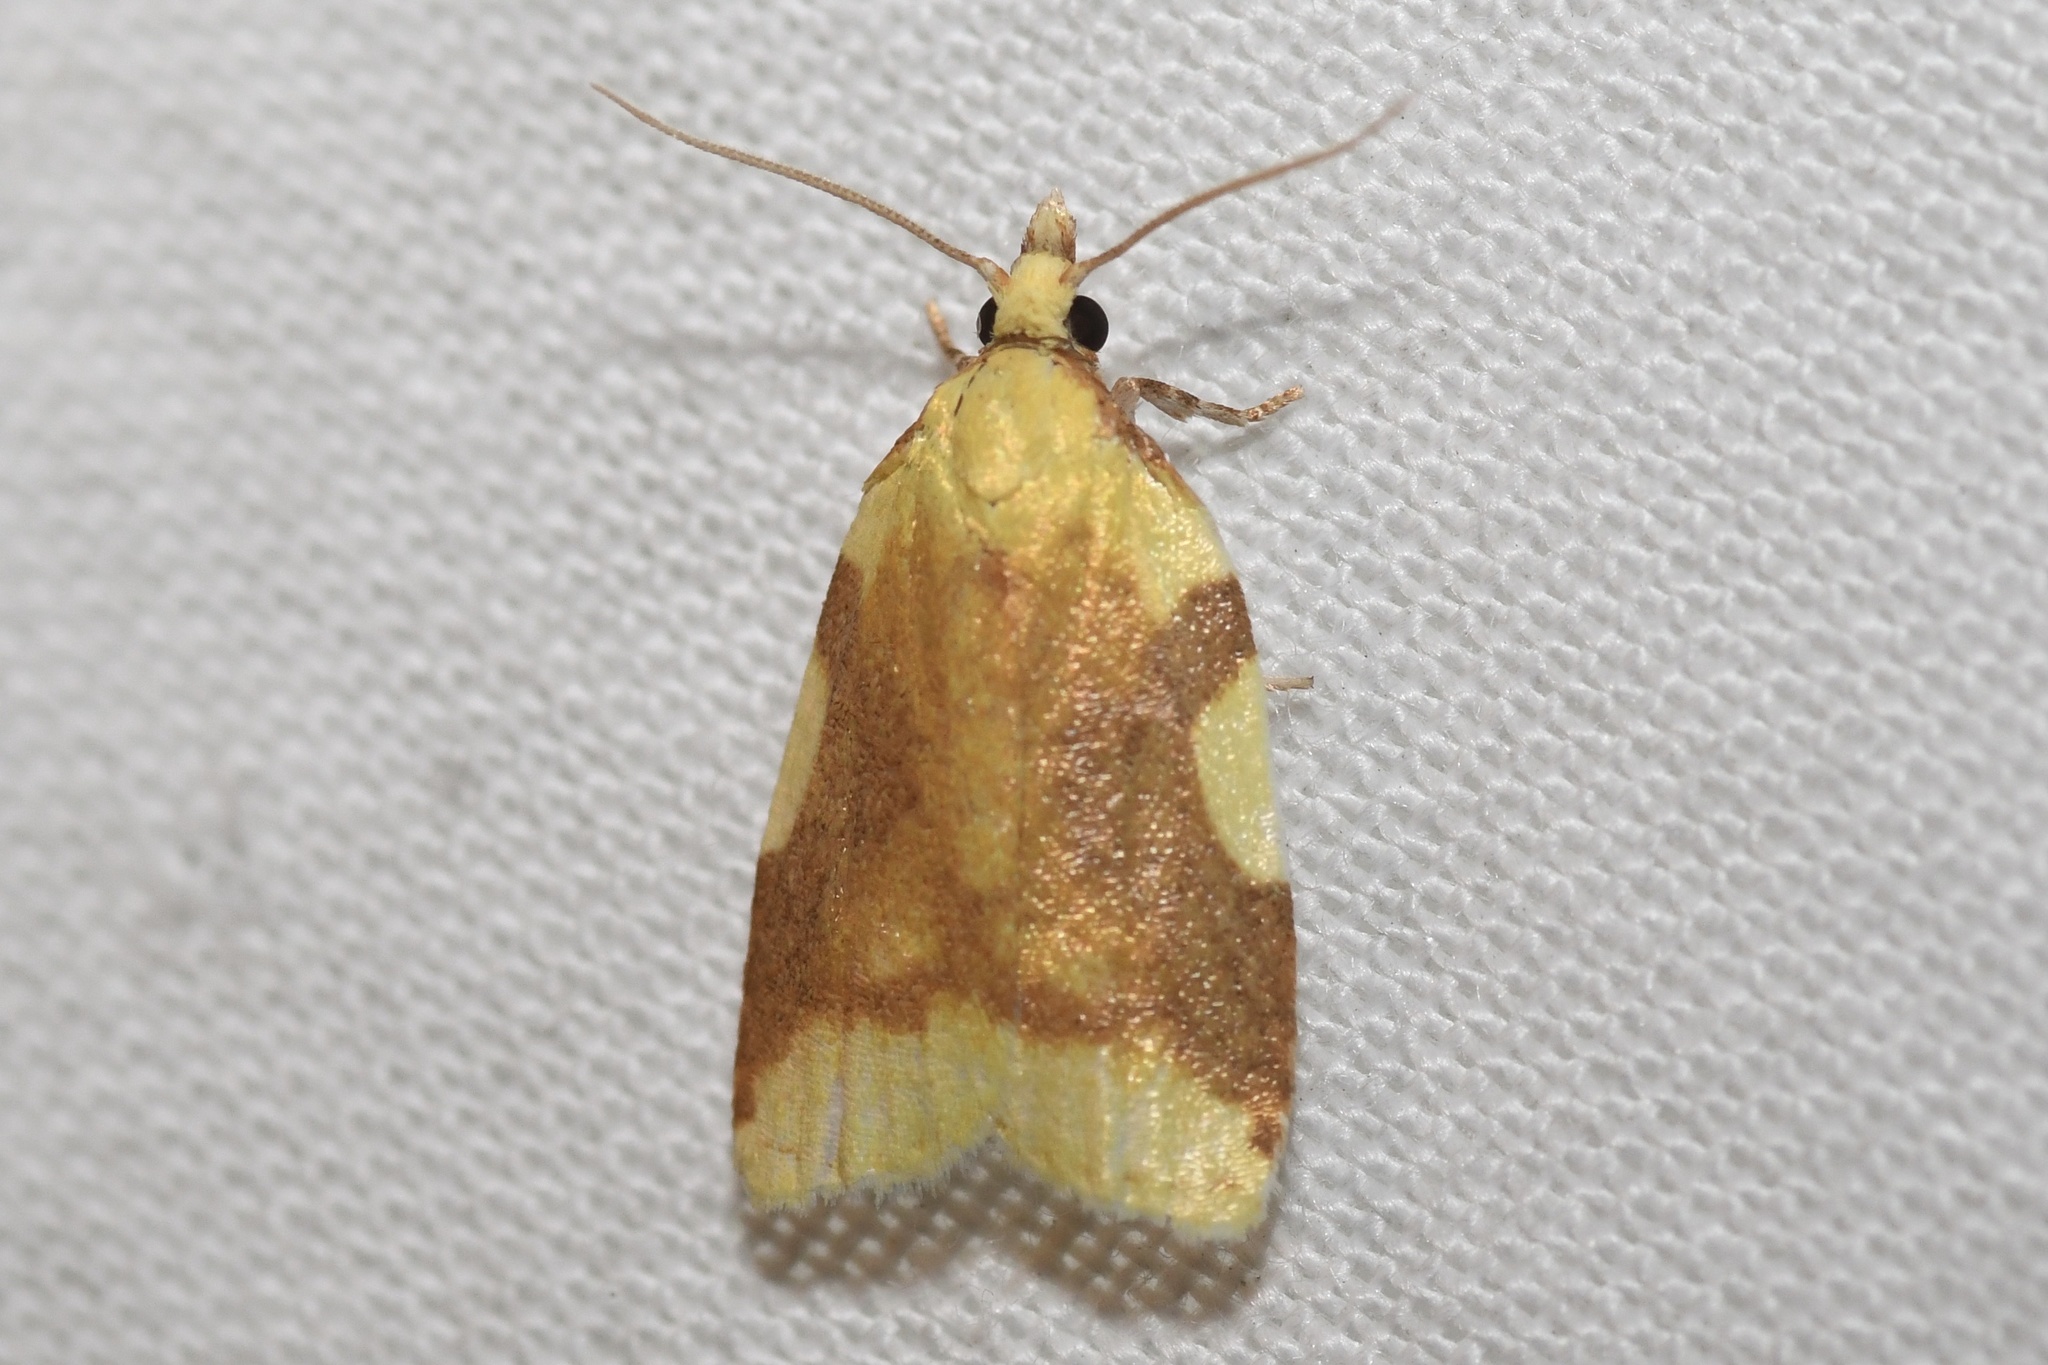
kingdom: Animalia
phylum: Arthropoda
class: Insecta
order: Lepidoptera
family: Tortricidae
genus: Cenopis
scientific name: Cenopis niveana
